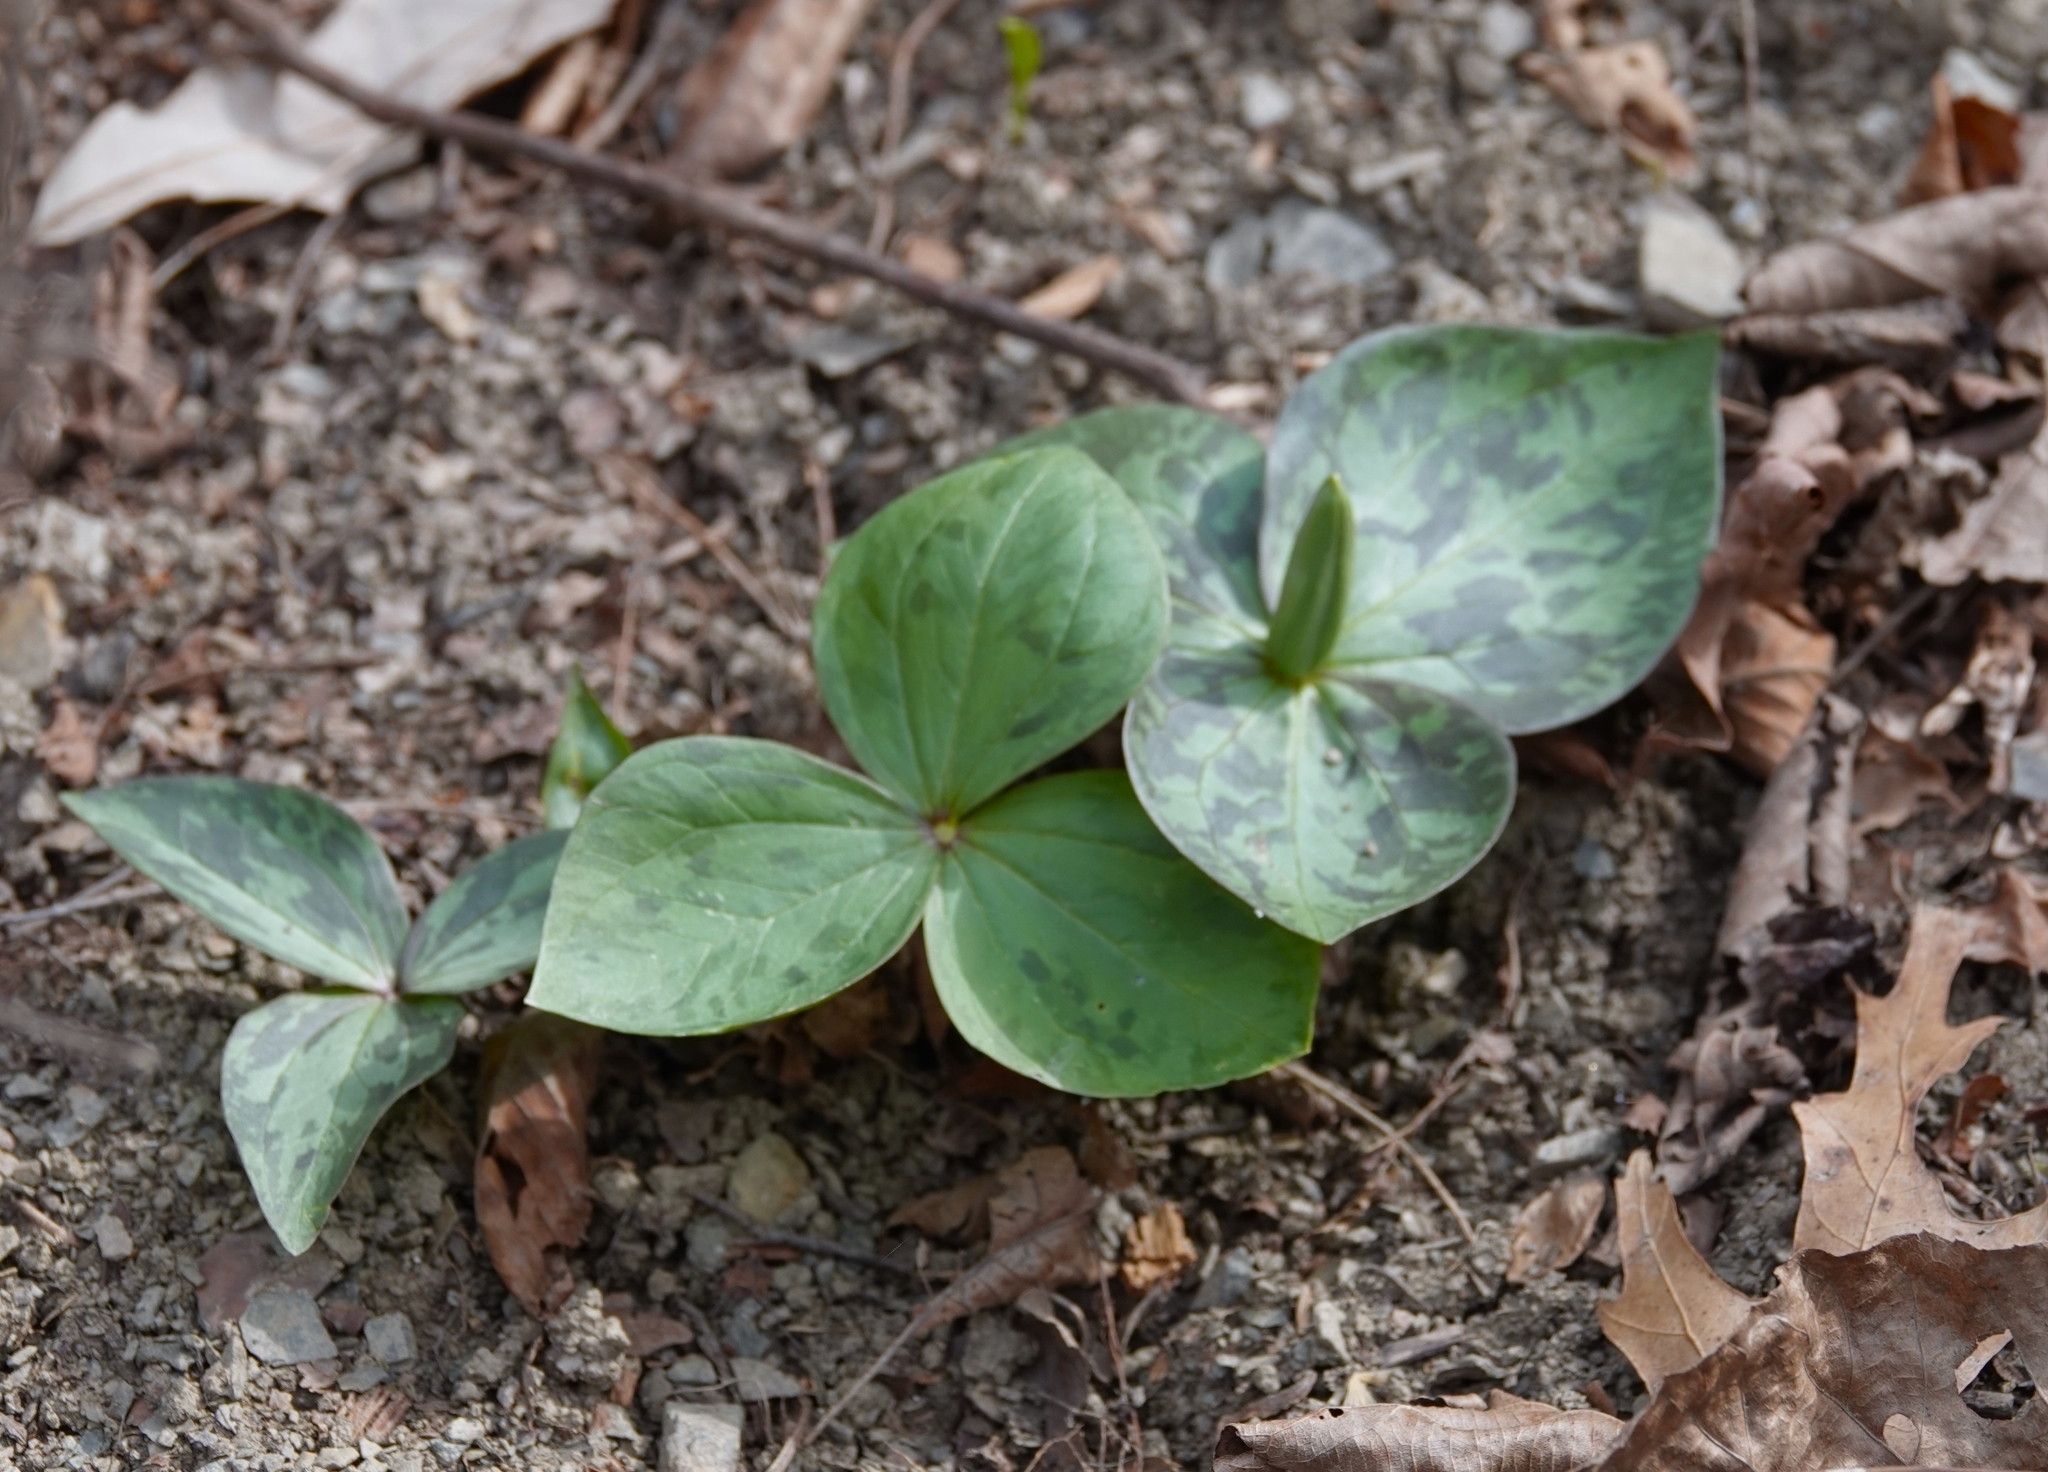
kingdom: Plantae
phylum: Tracheophyta
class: Liliopsida
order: Liliales
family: Melanthiaceae
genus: Trillium
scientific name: Trillium viridescens
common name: Ozark green trillium
